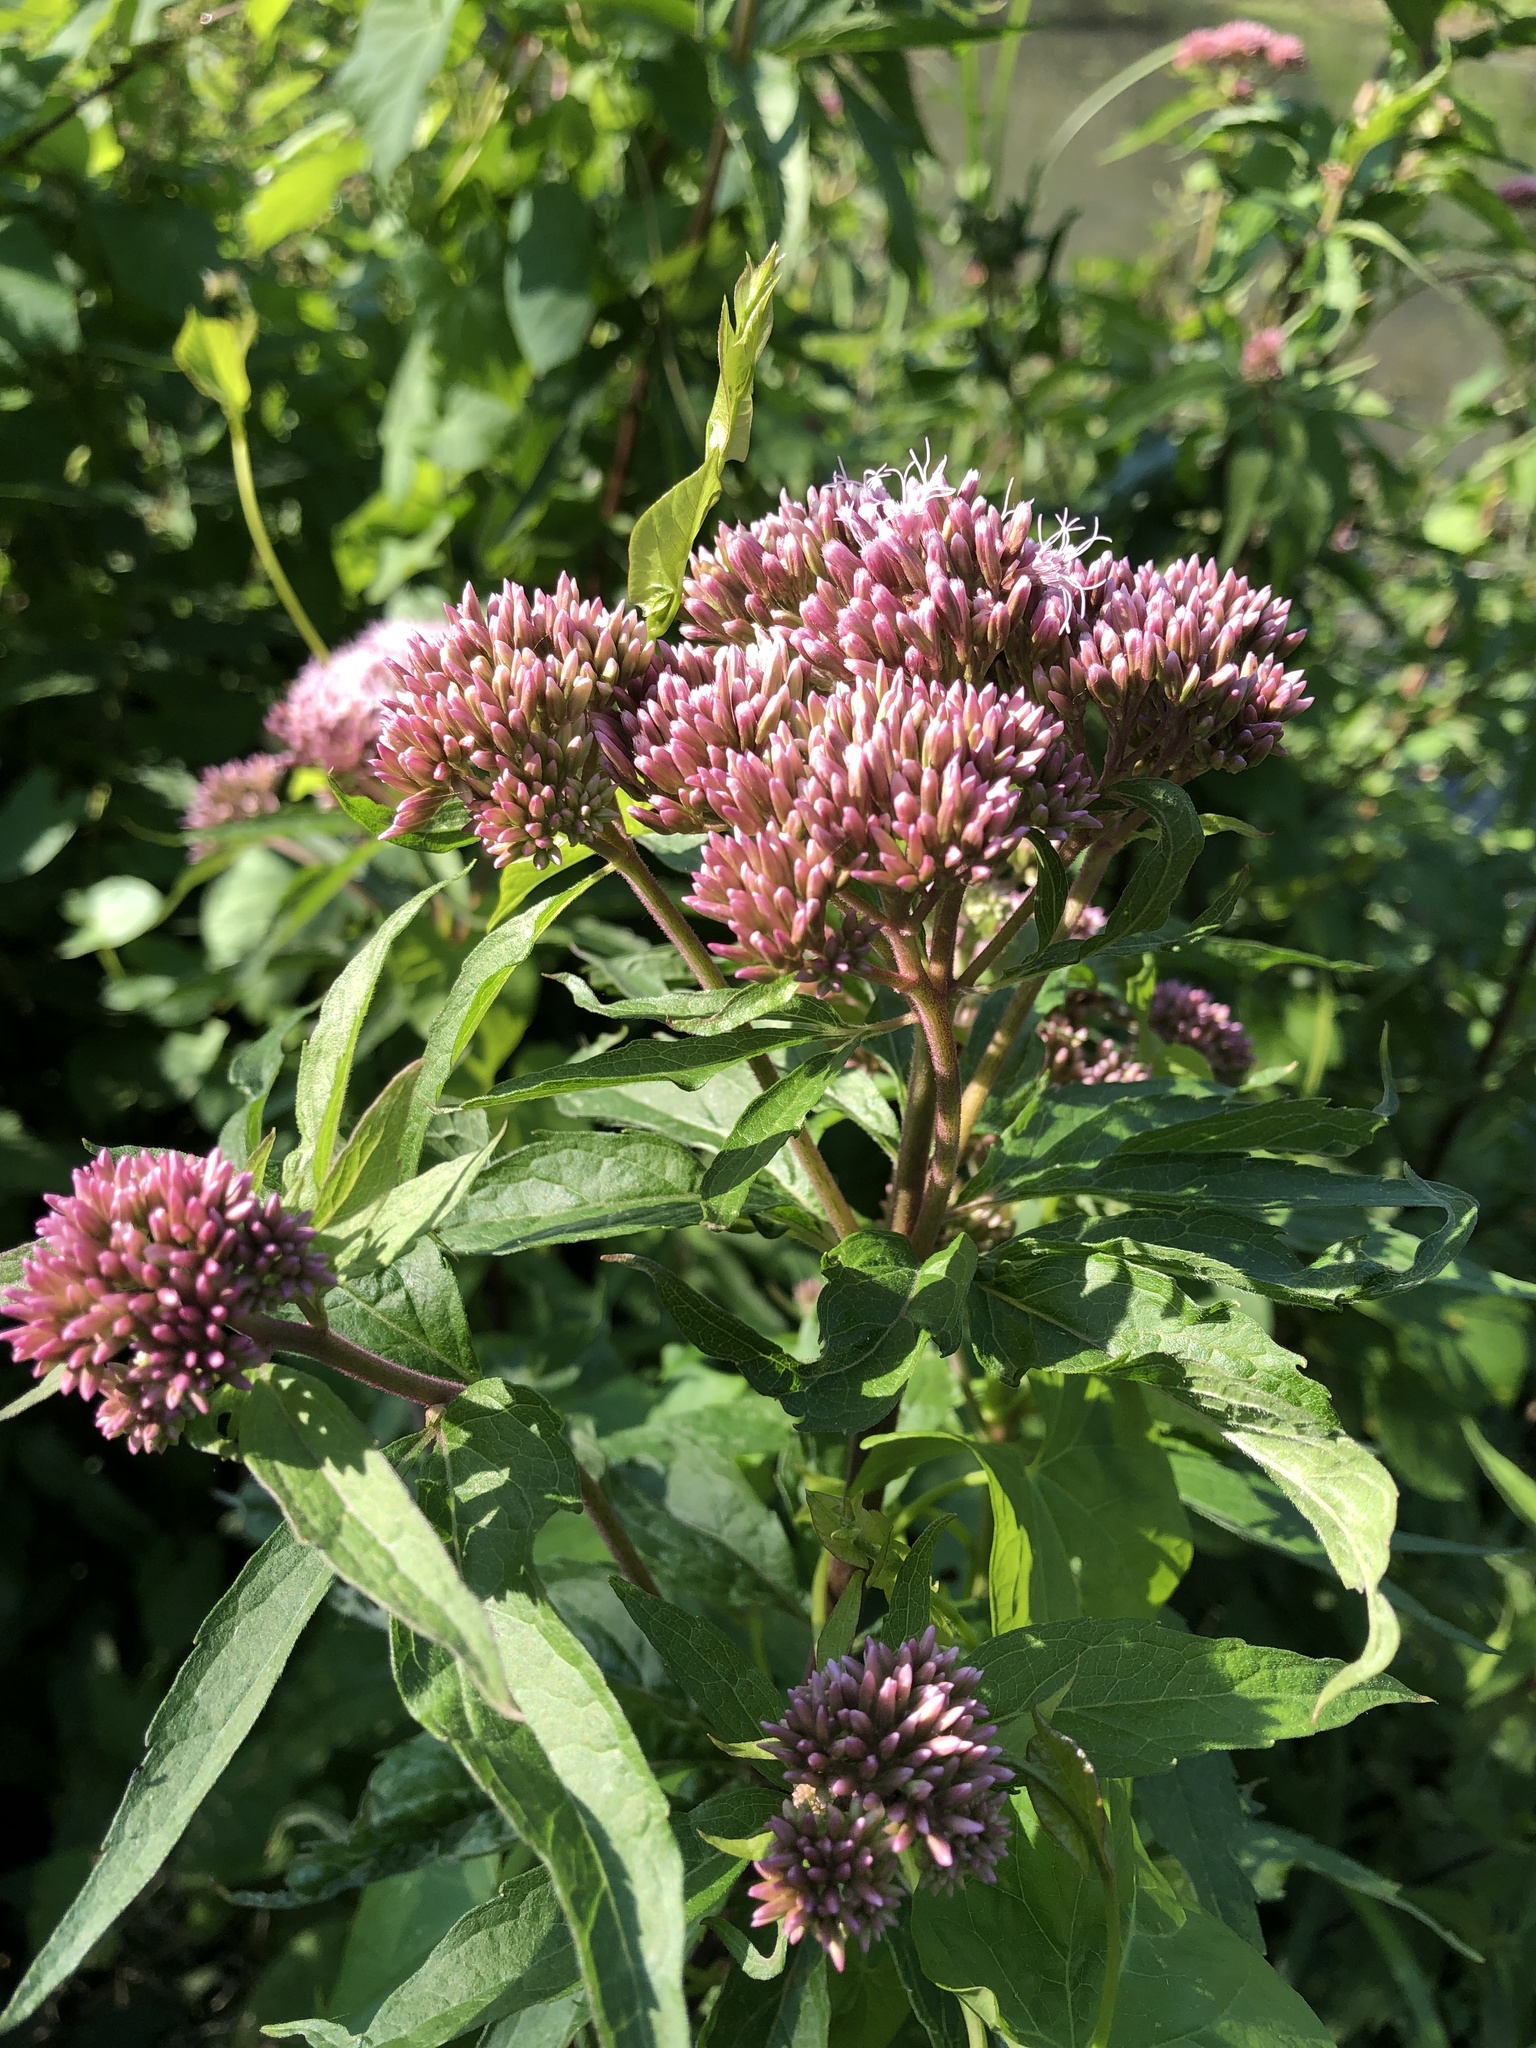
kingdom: Plantae
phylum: Tracheophyta
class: Magnoliopsida
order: Asterales
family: Asteraceae
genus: Eupatorium
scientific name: Eupatorium cannabinum
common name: Hemp-agrimony
